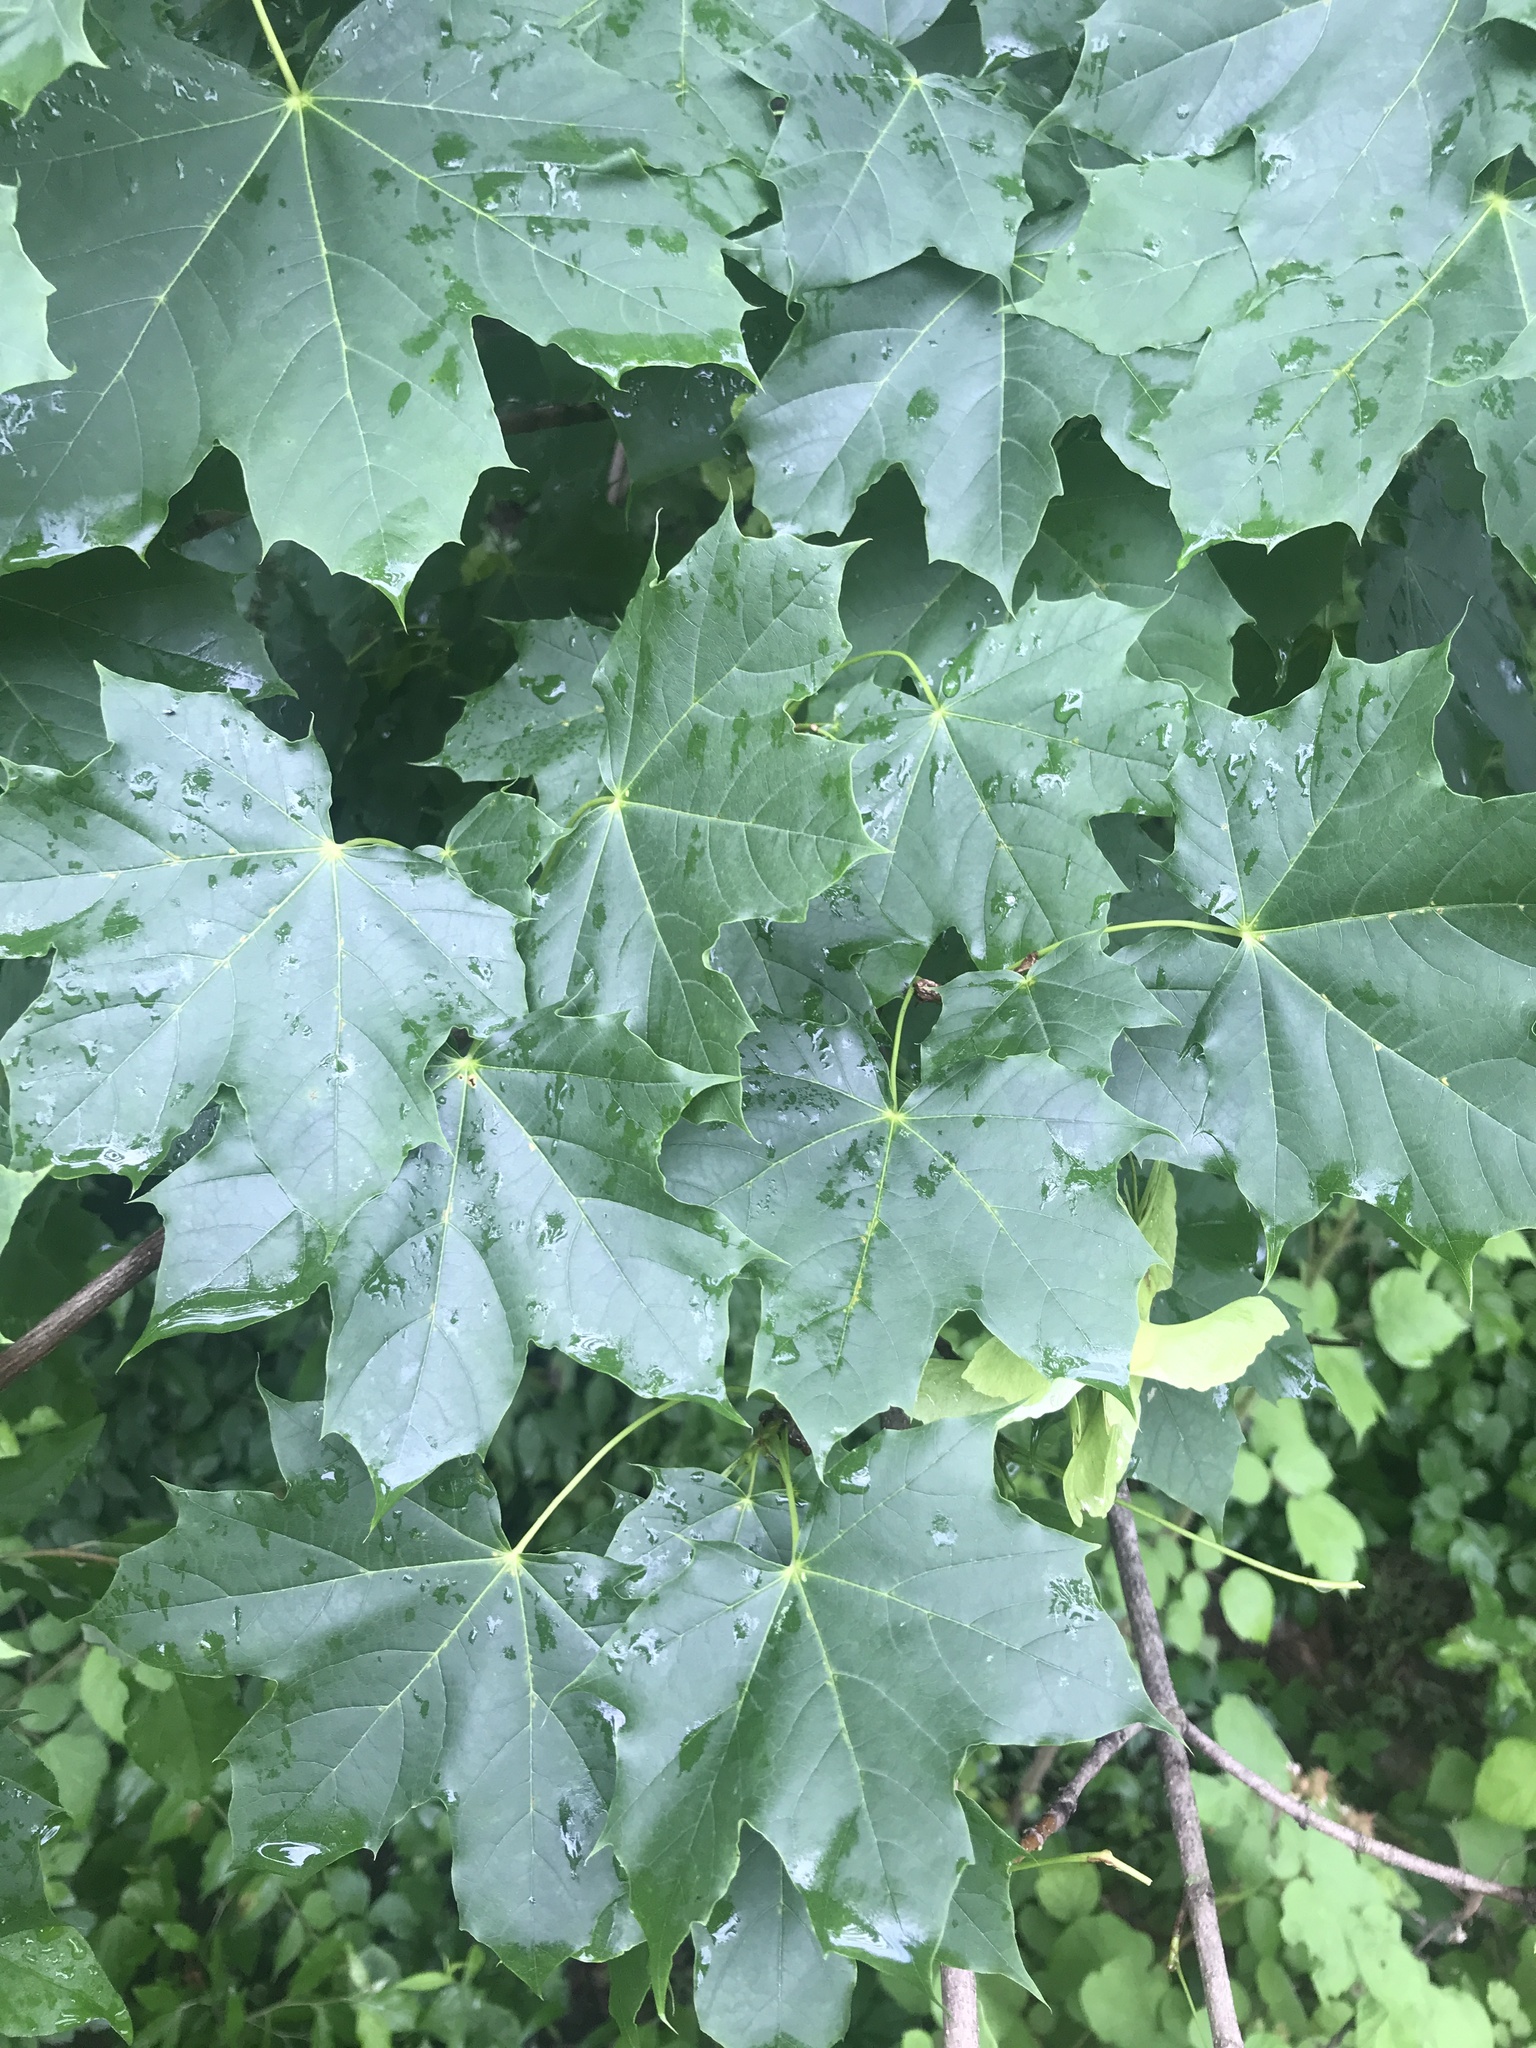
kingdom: Plantae
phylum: Tracheophyta
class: Magnoliopsida
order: Sapindales
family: Sapindaceae
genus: Acer
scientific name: Acer platanoides
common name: Norway maple
